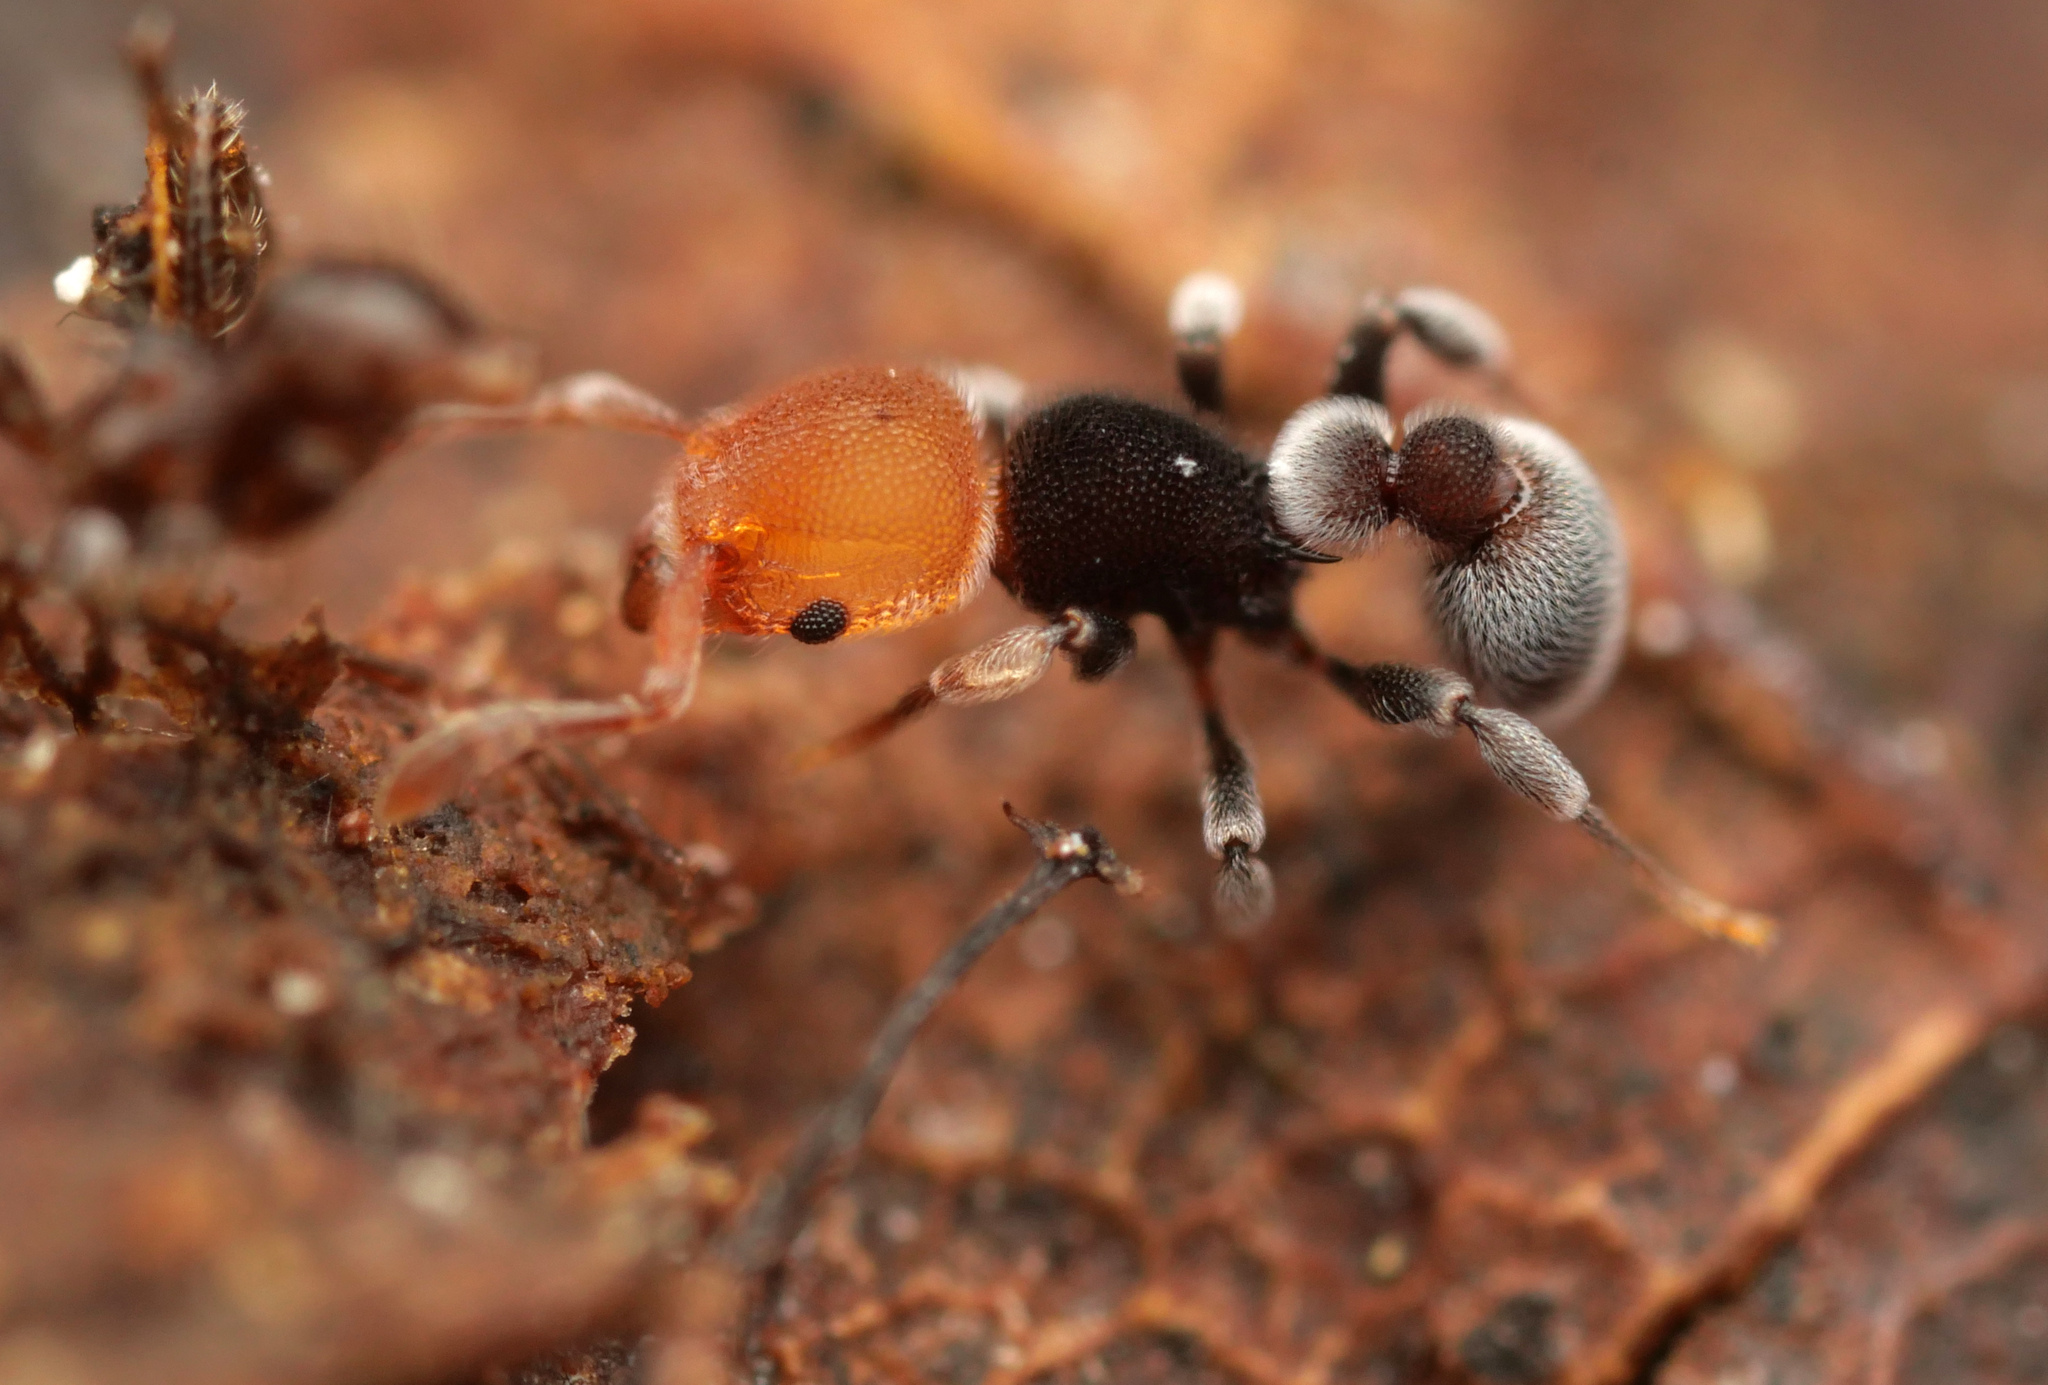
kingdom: Animalia
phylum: Arthropoda
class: Insecta
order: Hymenoptera
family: Formicidae
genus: Tetramorium
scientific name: Tetramorium fulviceps
